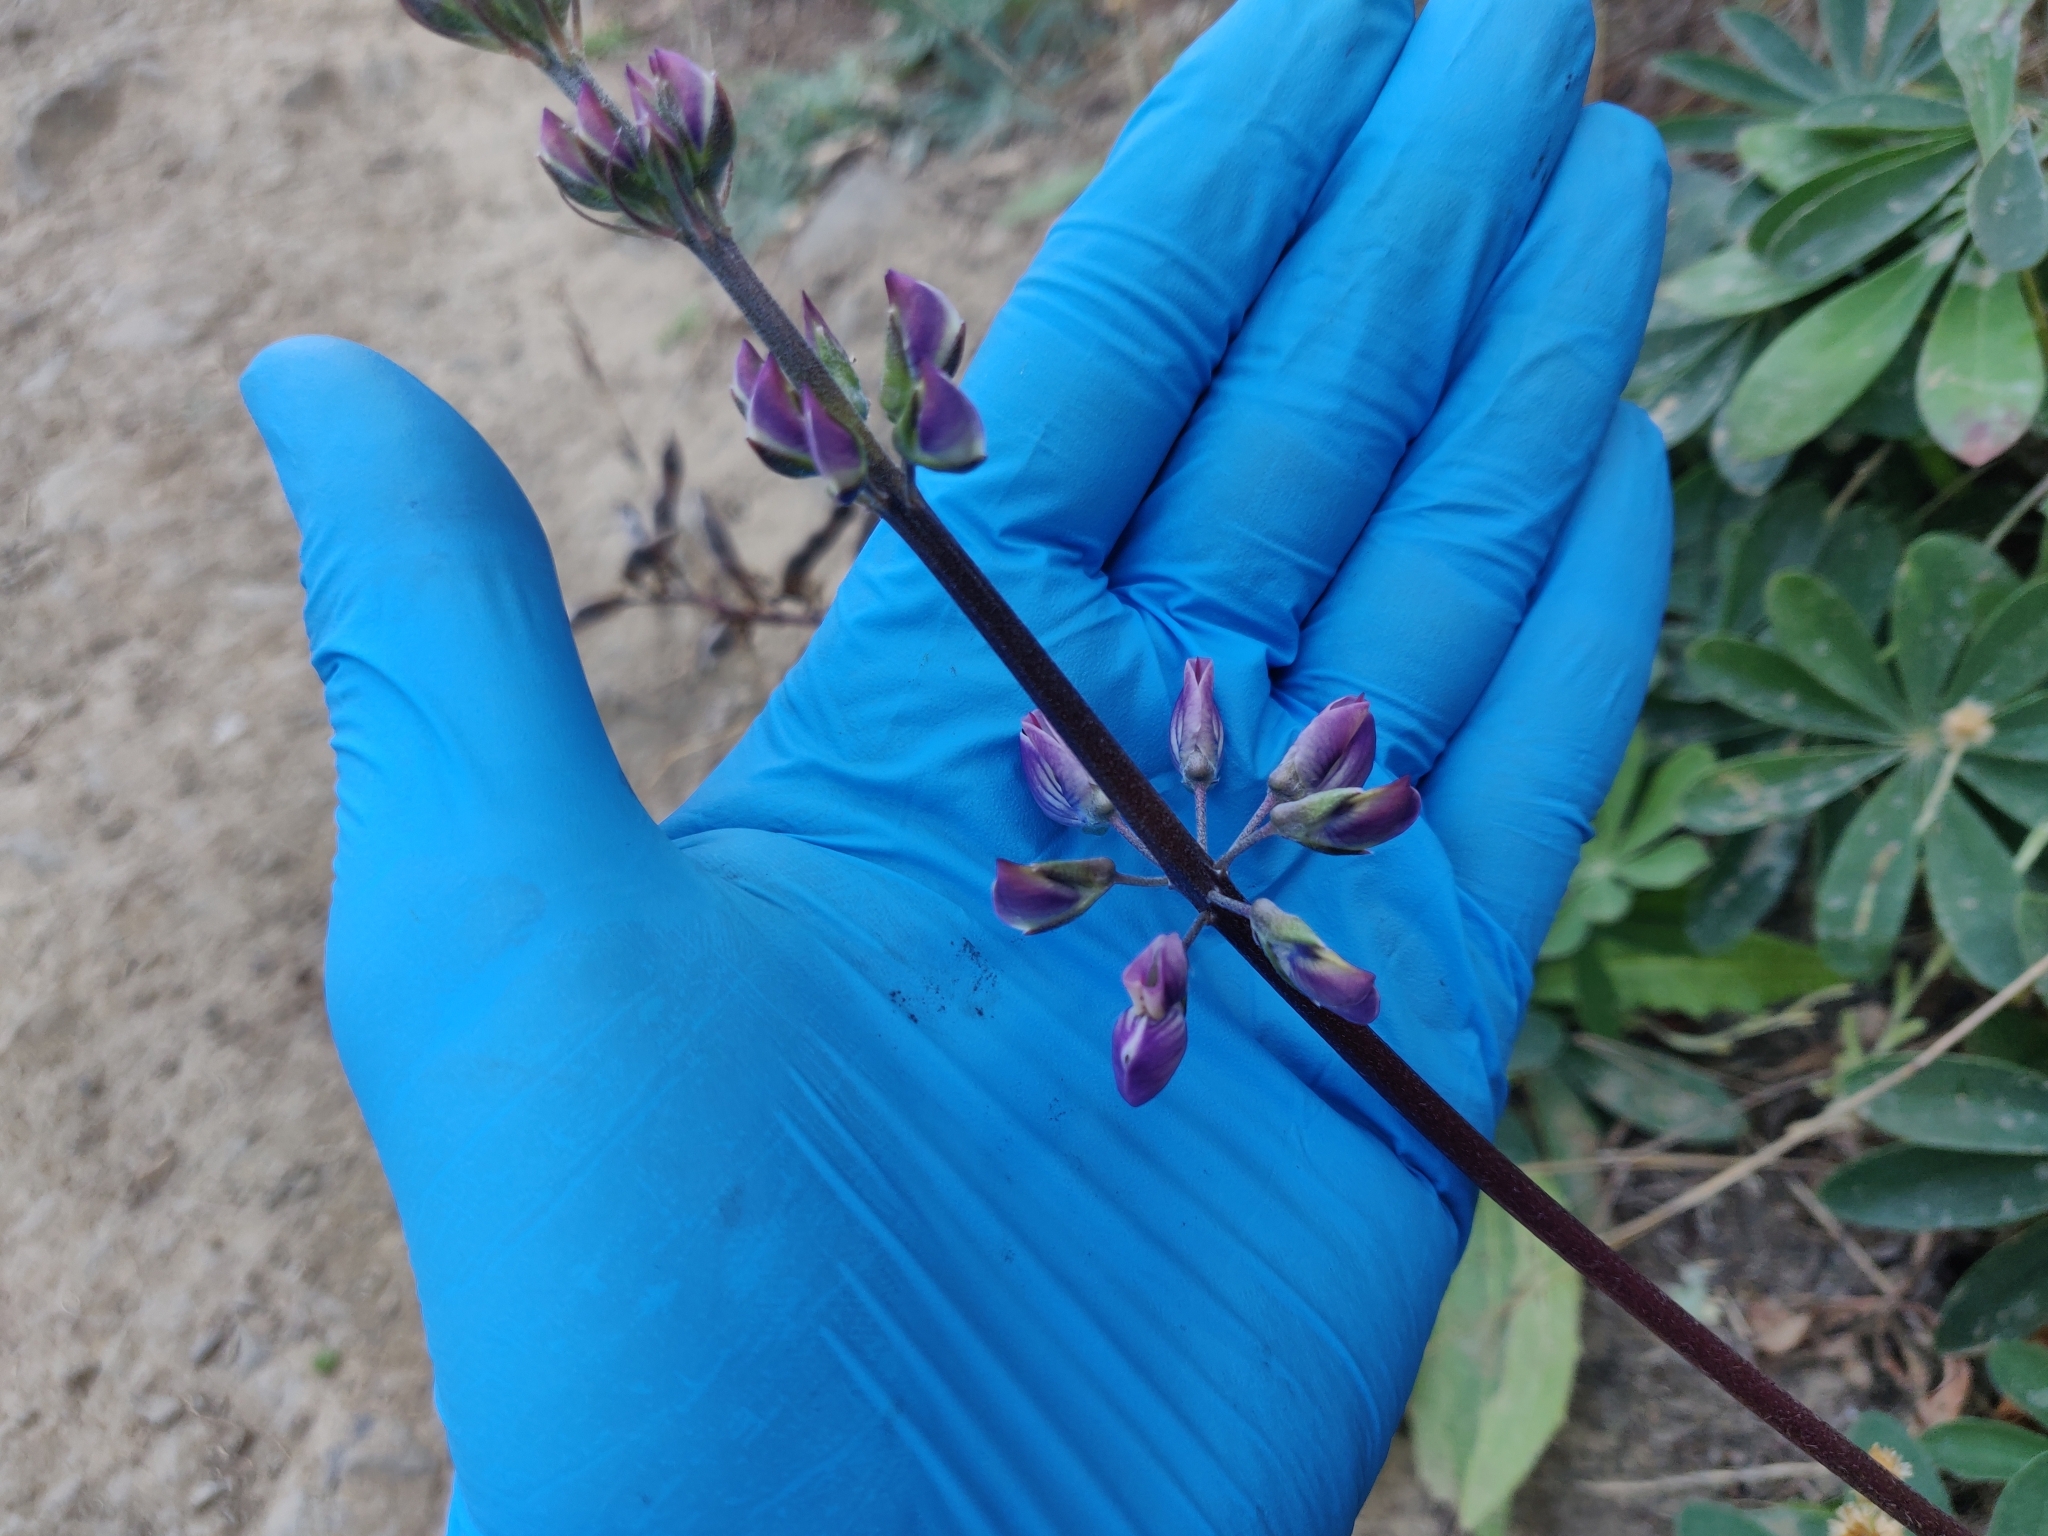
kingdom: Plantae
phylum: Tracheophyta
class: Magnoliopsida
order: Fabales
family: Fabaceae
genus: Lupinus
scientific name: Lupinus latifolius
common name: Broad-leaved lupine
